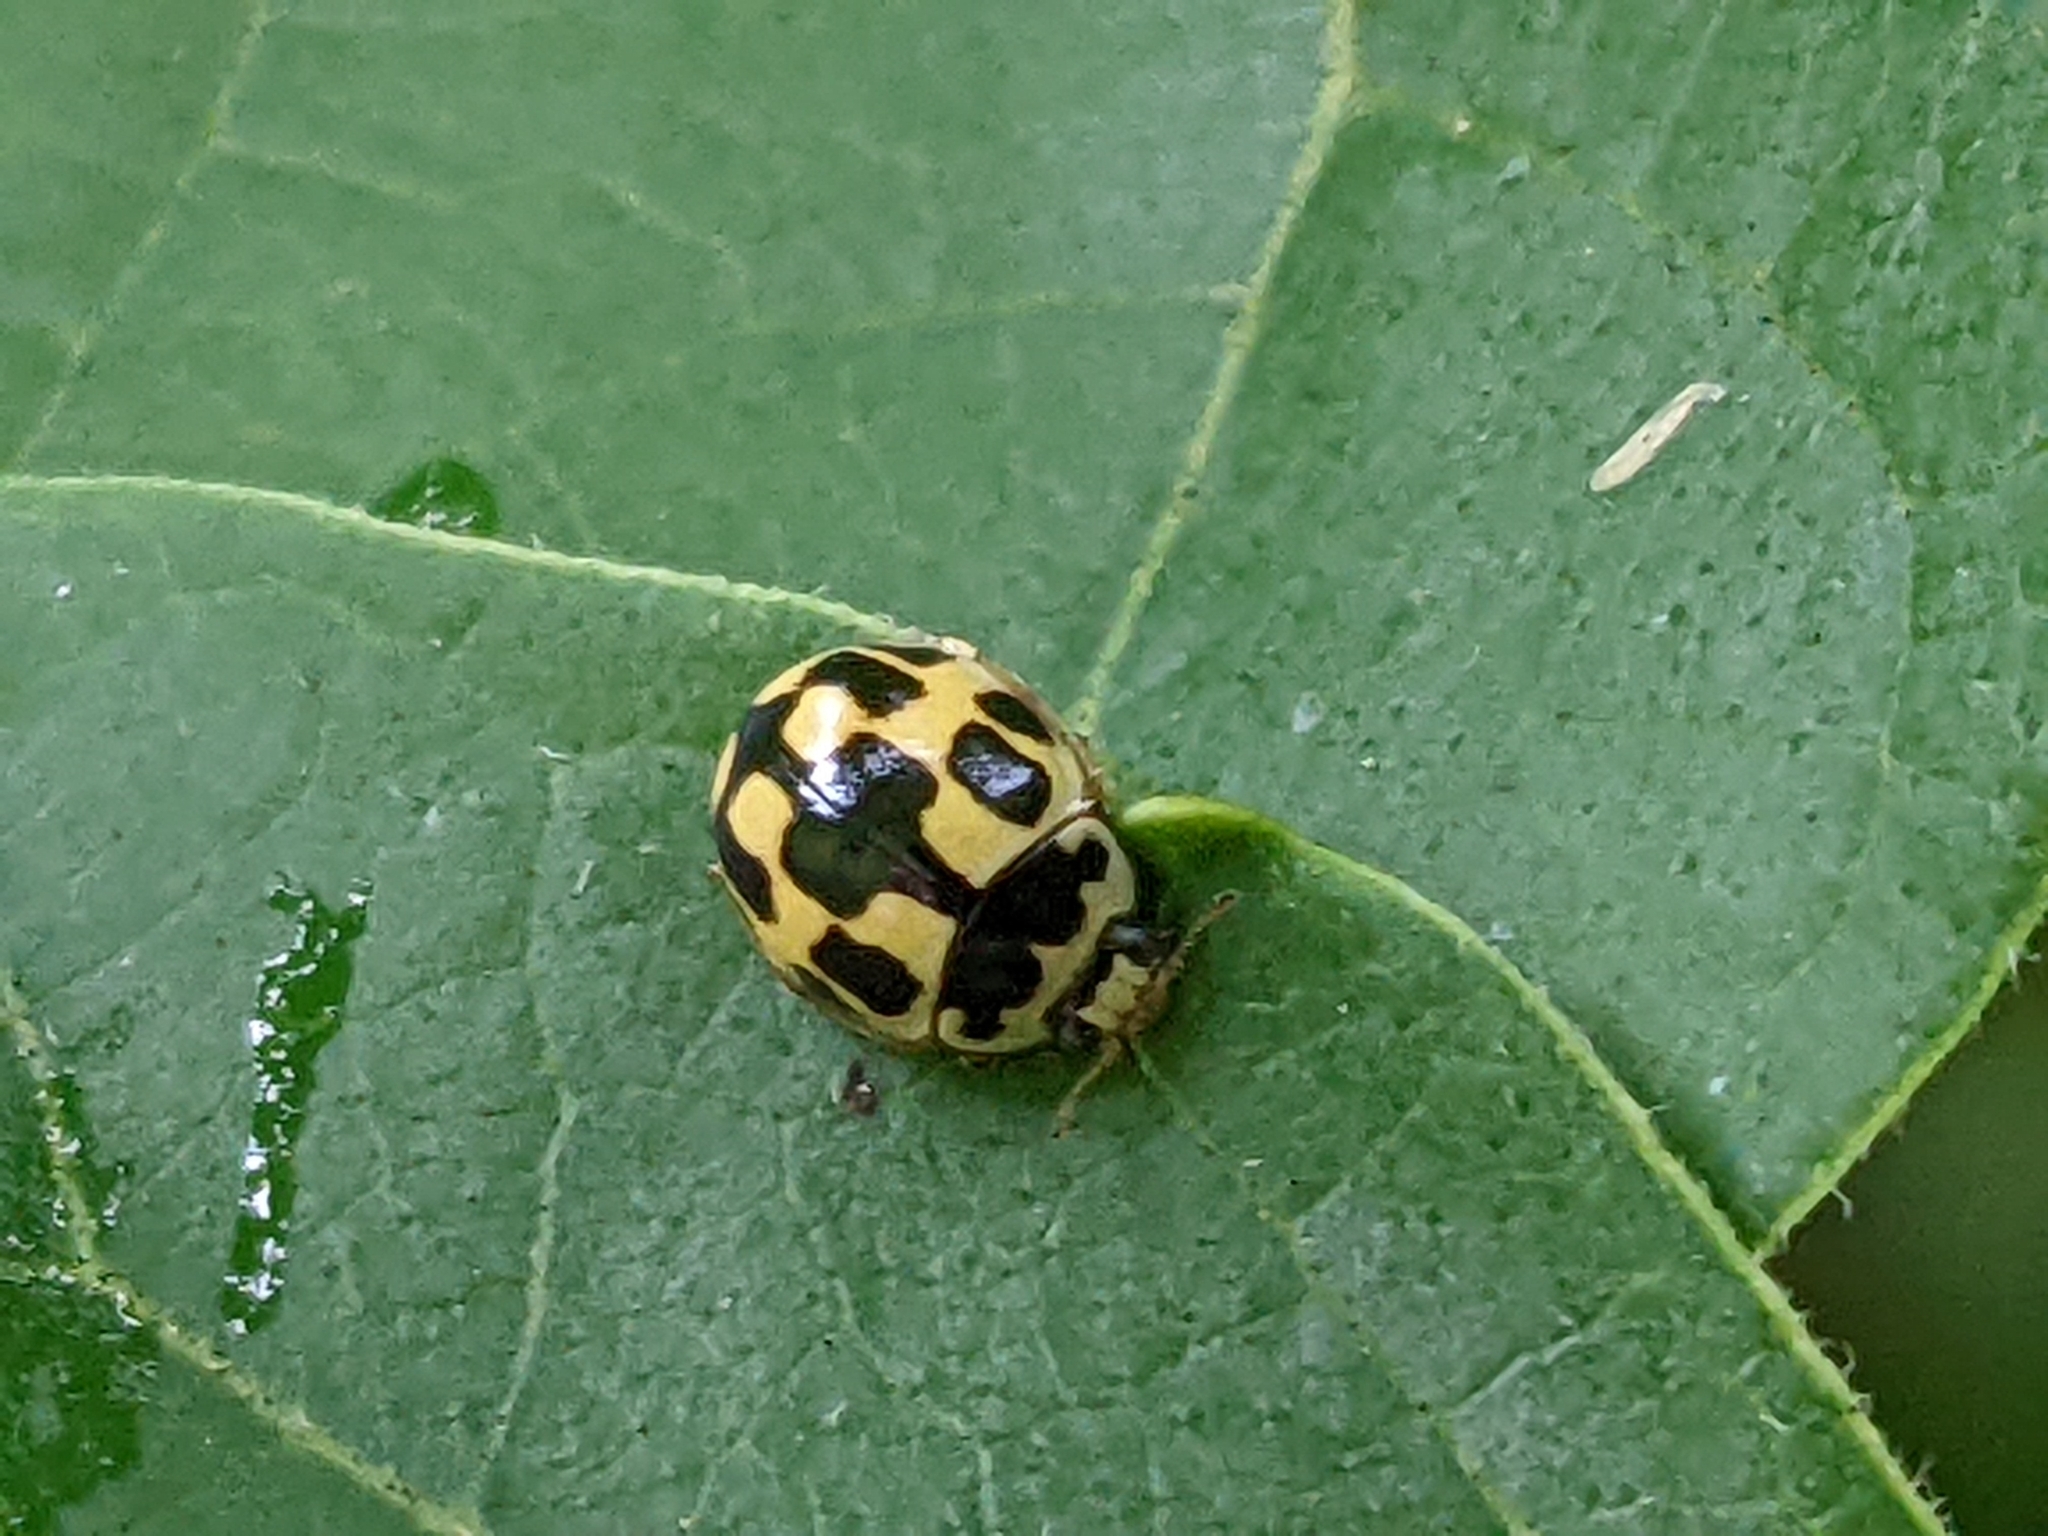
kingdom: Animalia
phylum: Arthropoda
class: Insecta
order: Coleoptera
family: Coccinellidae
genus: Propylaea
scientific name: Propylaea quatuordecimpunctata
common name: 14-spotted ladybird beetle
